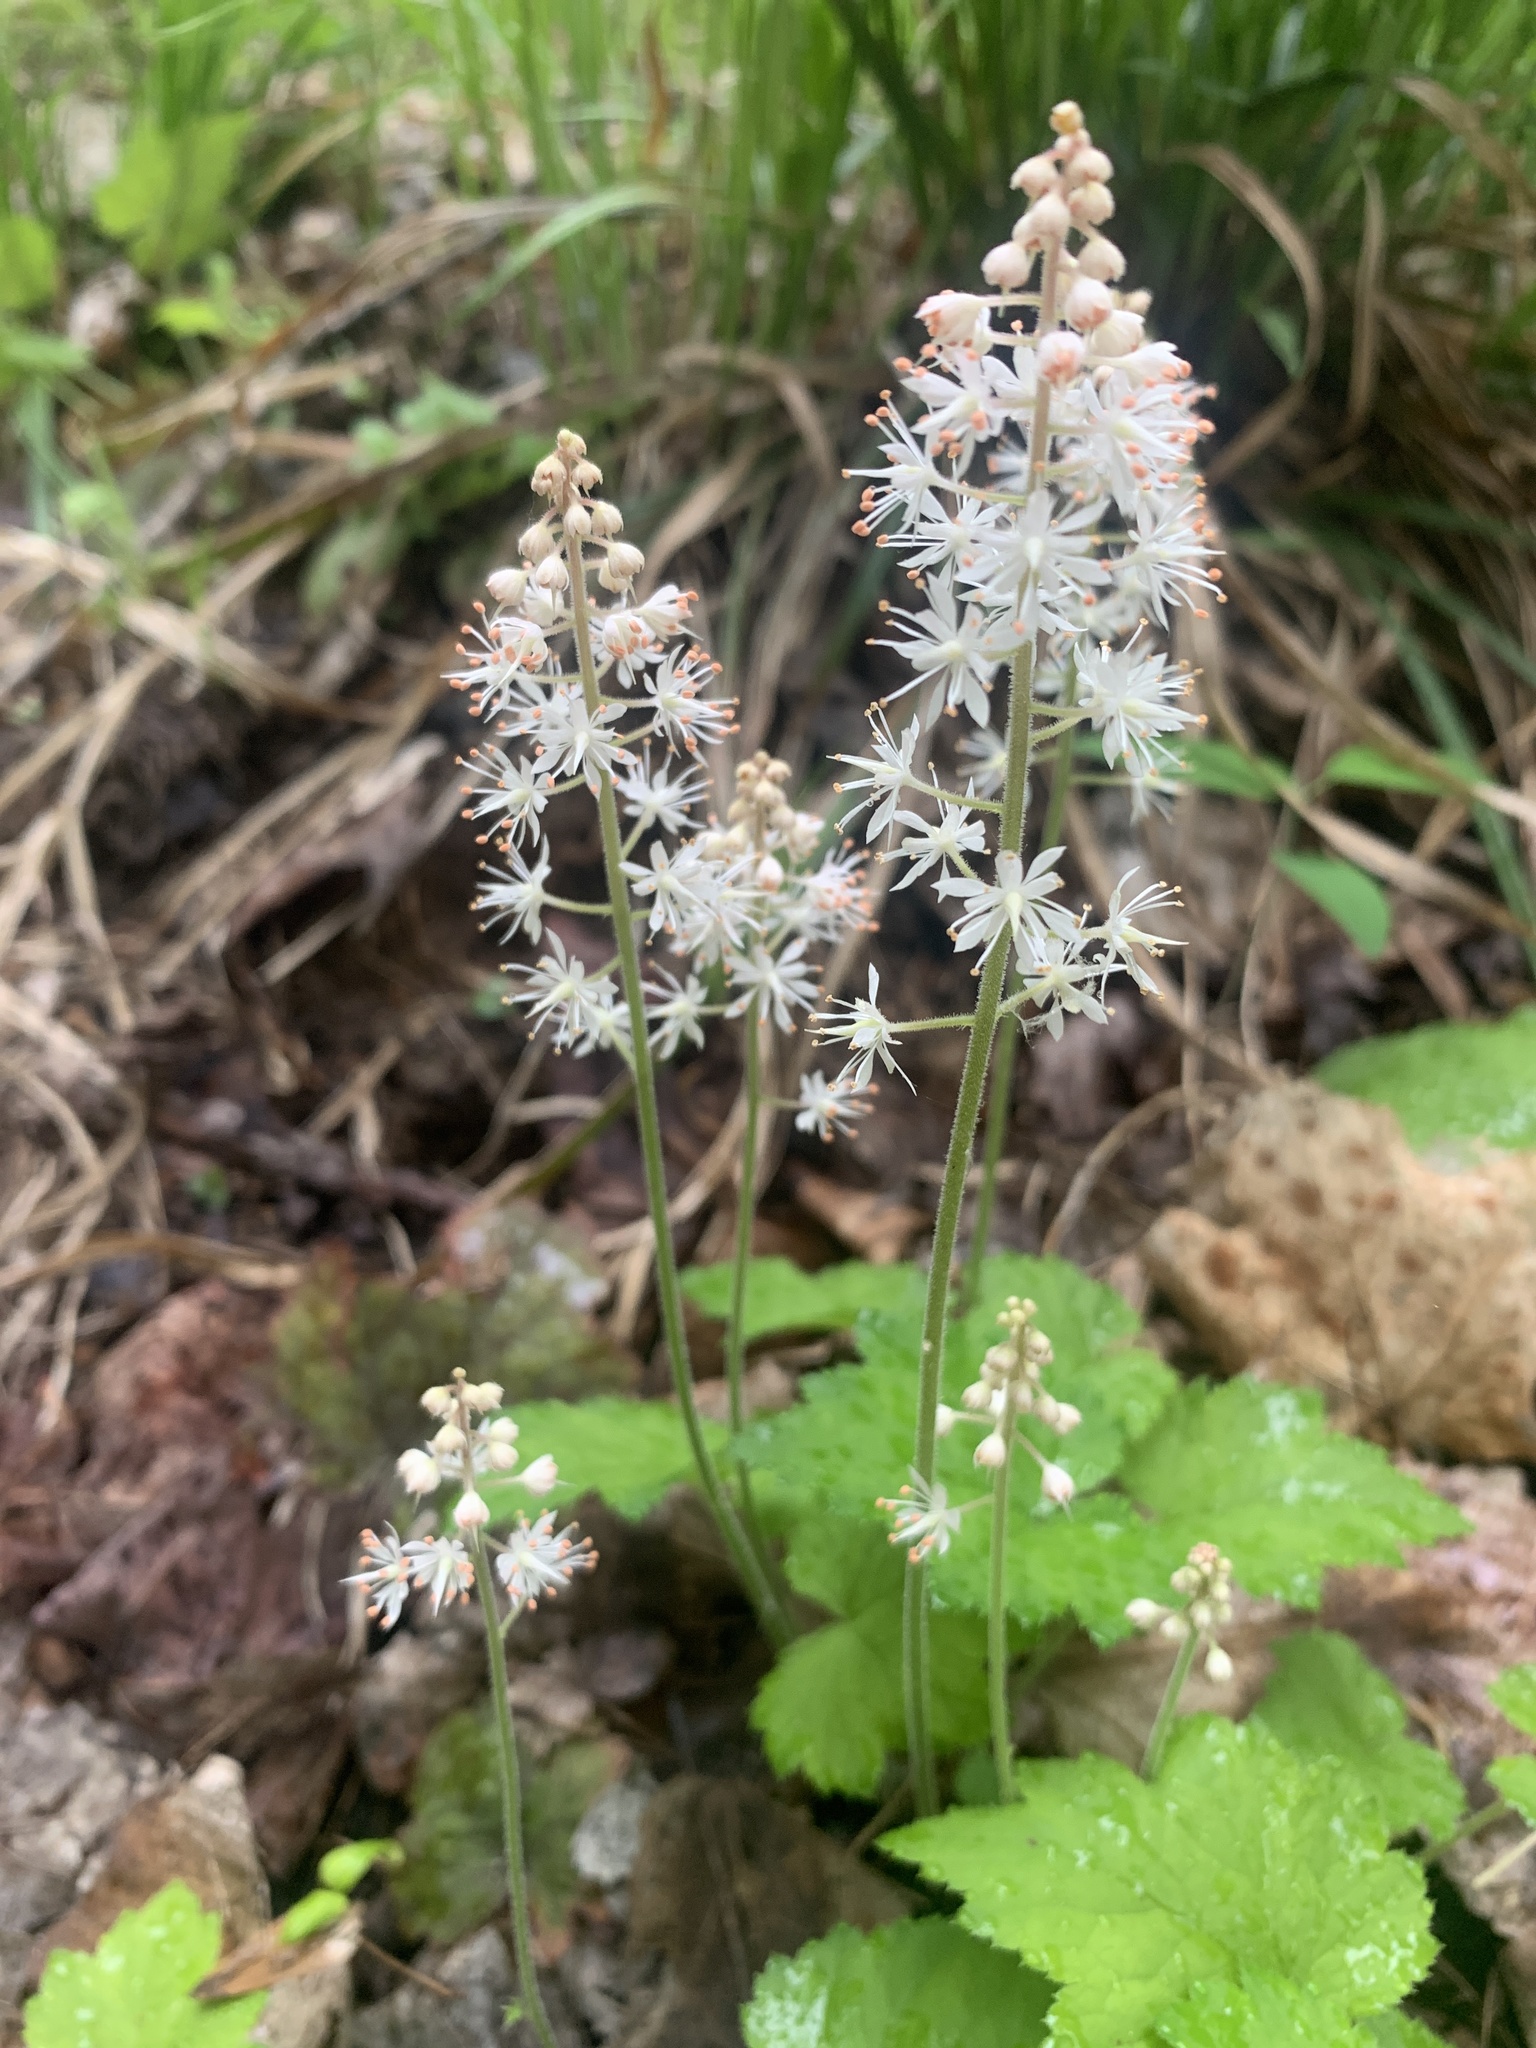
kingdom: Plantae
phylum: Tracheophyta
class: Magnoliopsida
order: Saxifragales
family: Saxifragaceae
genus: Tiarella
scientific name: Tiarella stolonifera
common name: Stoloniferous foamflower
